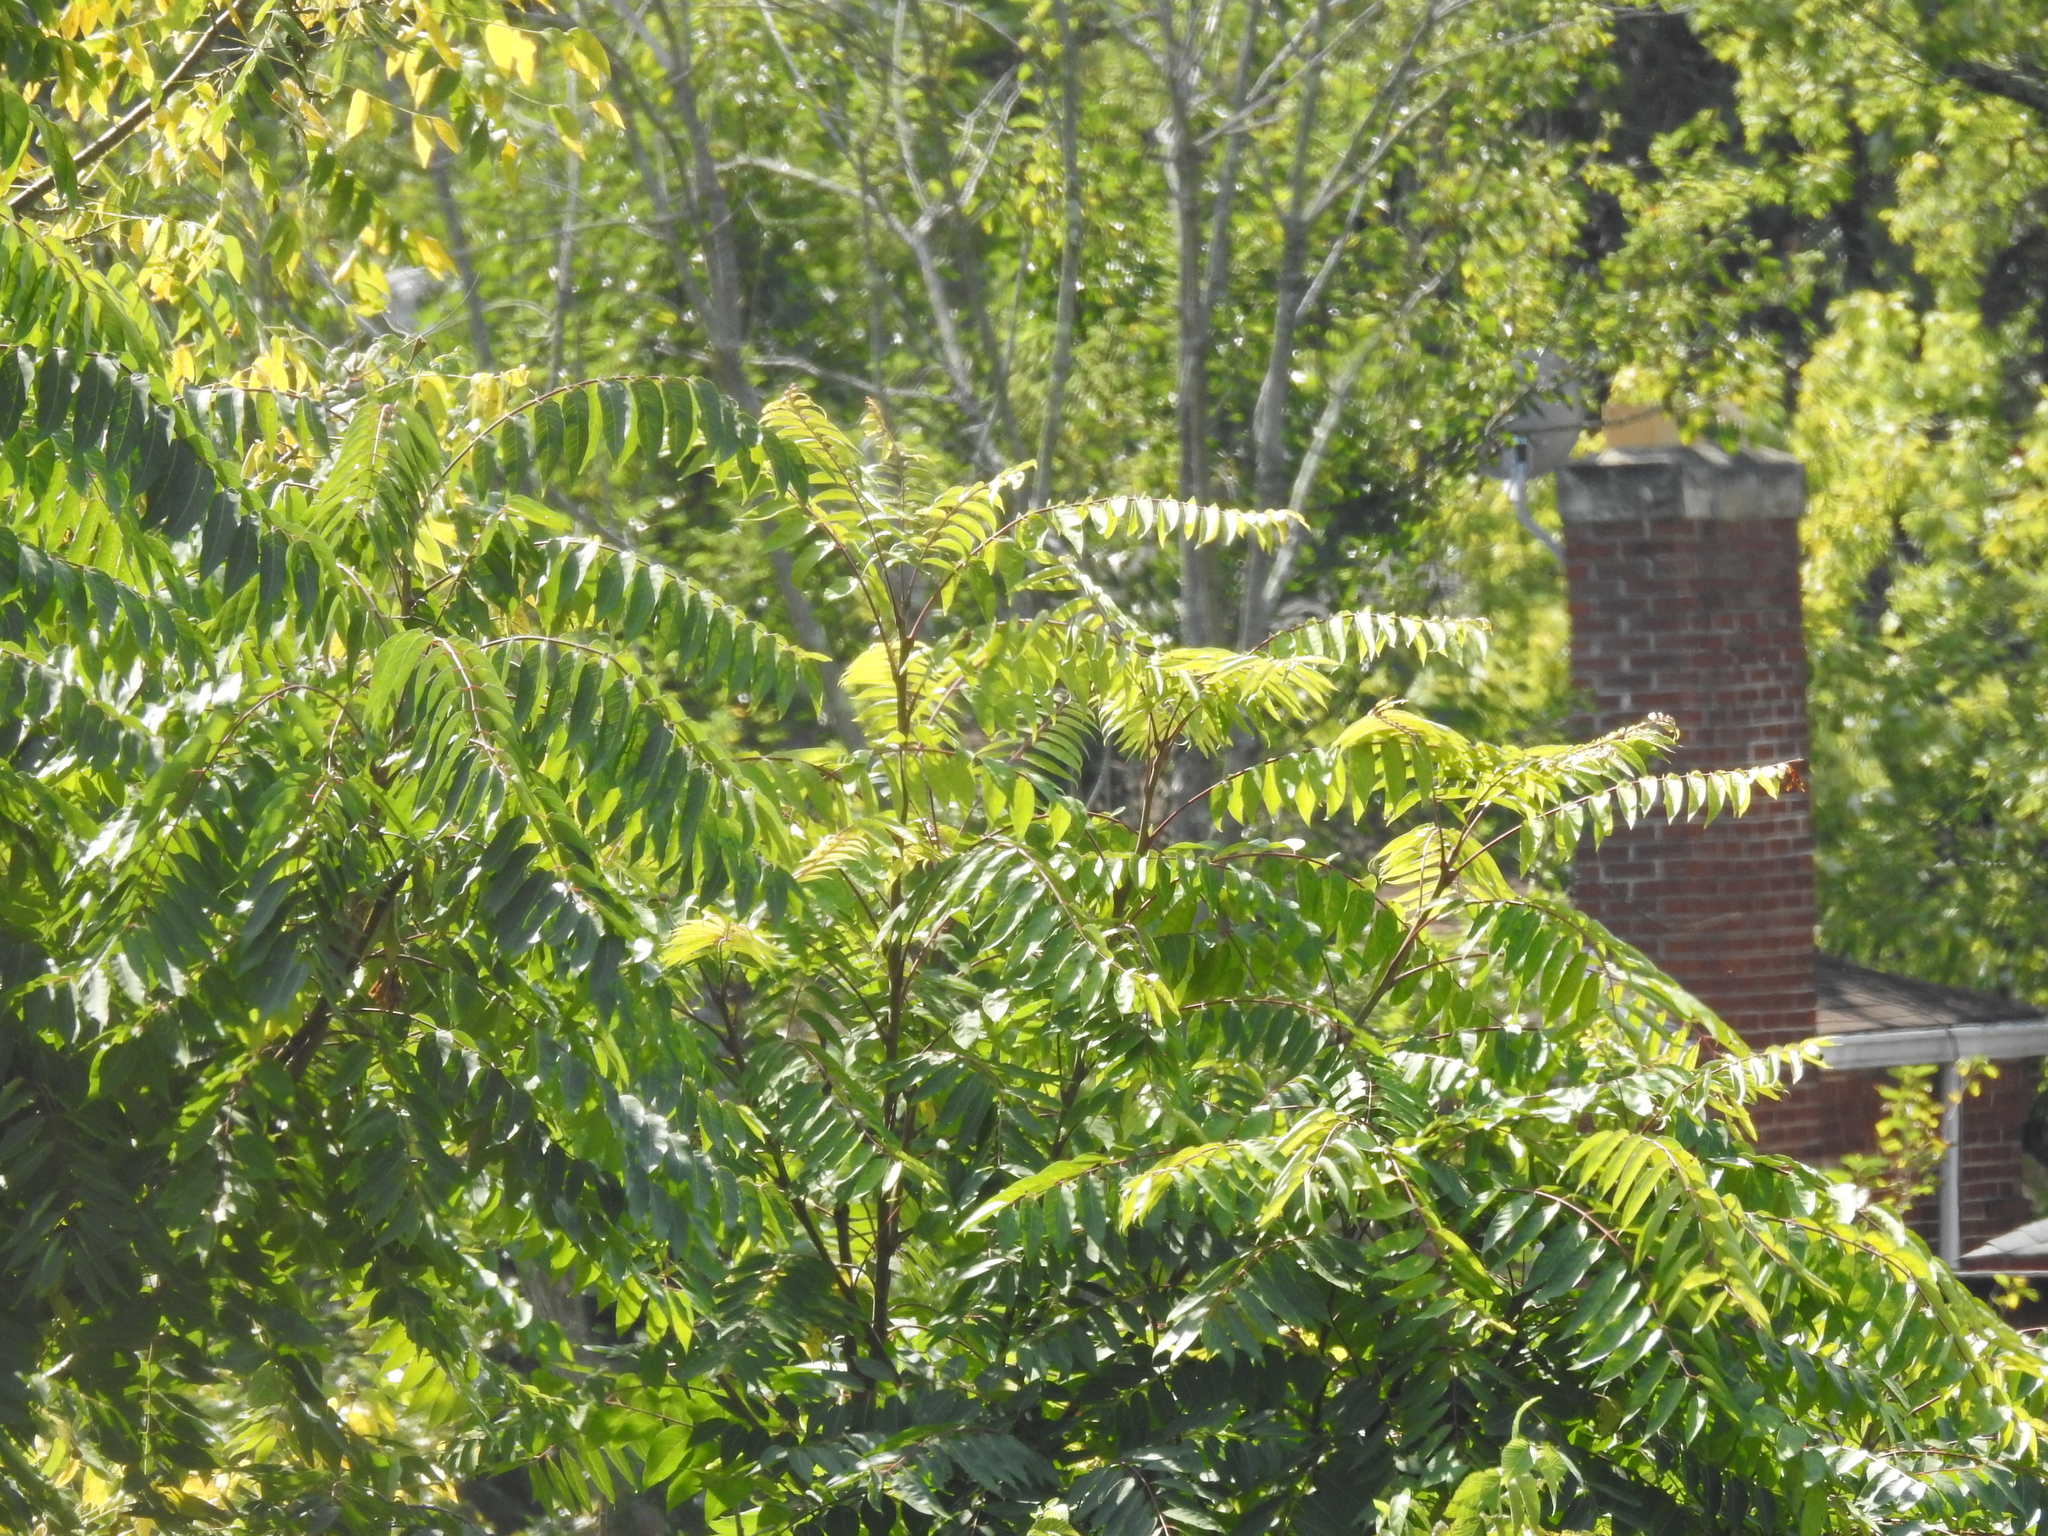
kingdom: Plantae
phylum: Tracheophyta
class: Magnoliopsida
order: Sapindales
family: Simaroubaceae
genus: Ailanthus
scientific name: Ailanthus altissima
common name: Tree-of-heaven
